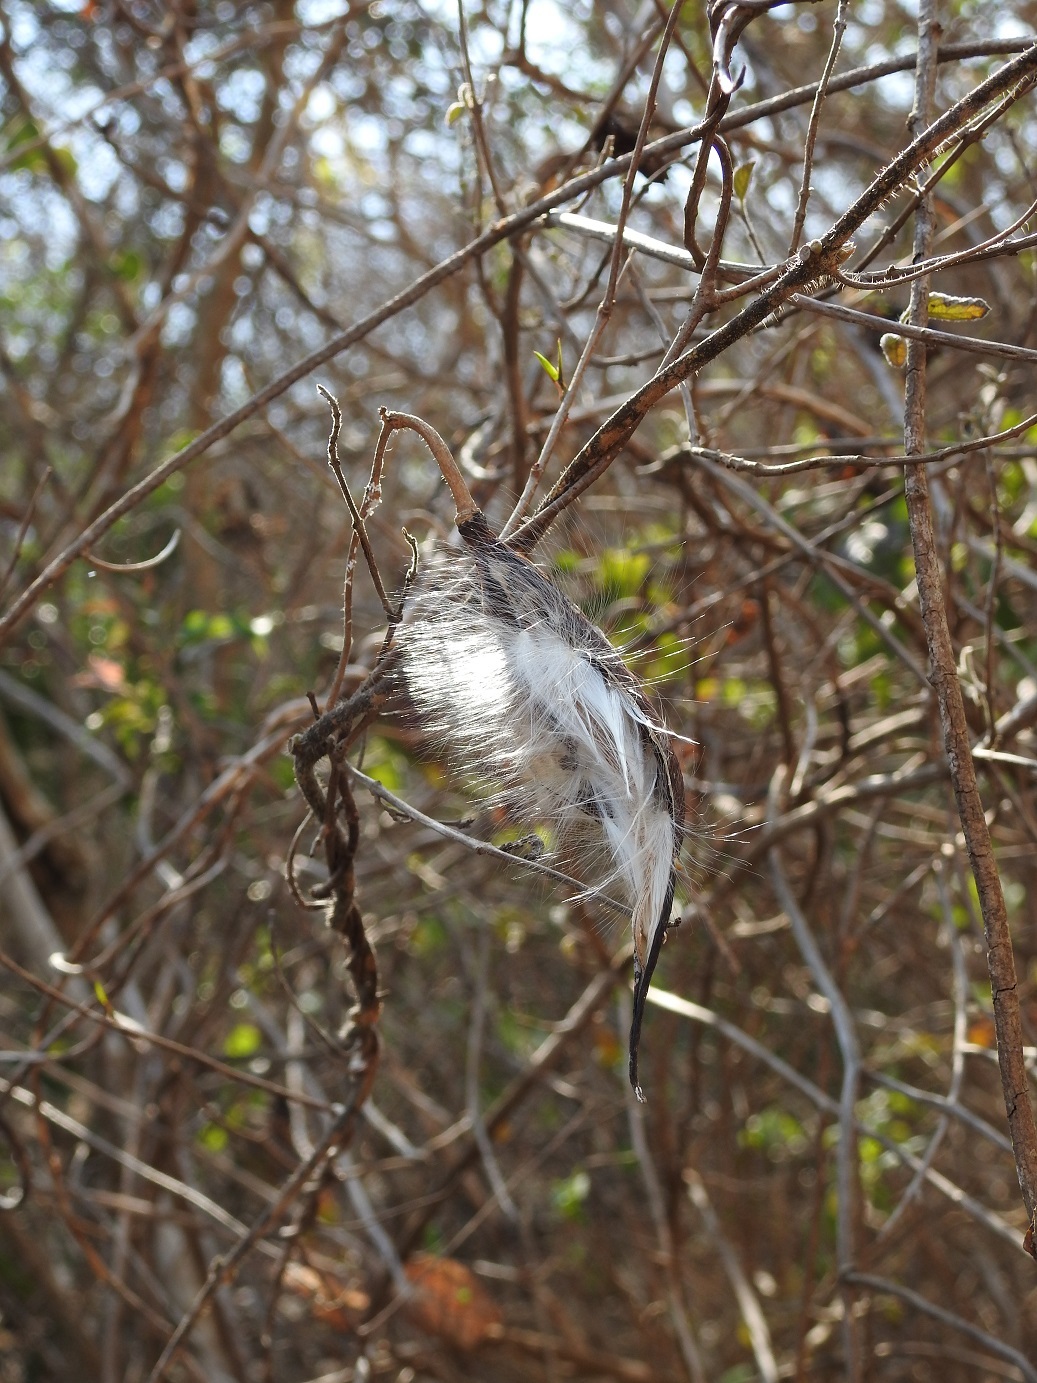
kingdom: Plantae
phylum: Tracheophyta
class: Magnoliopsida
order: Gentianales
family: Apocynaceae
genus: Matelea
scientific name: Matelea velutinoides
